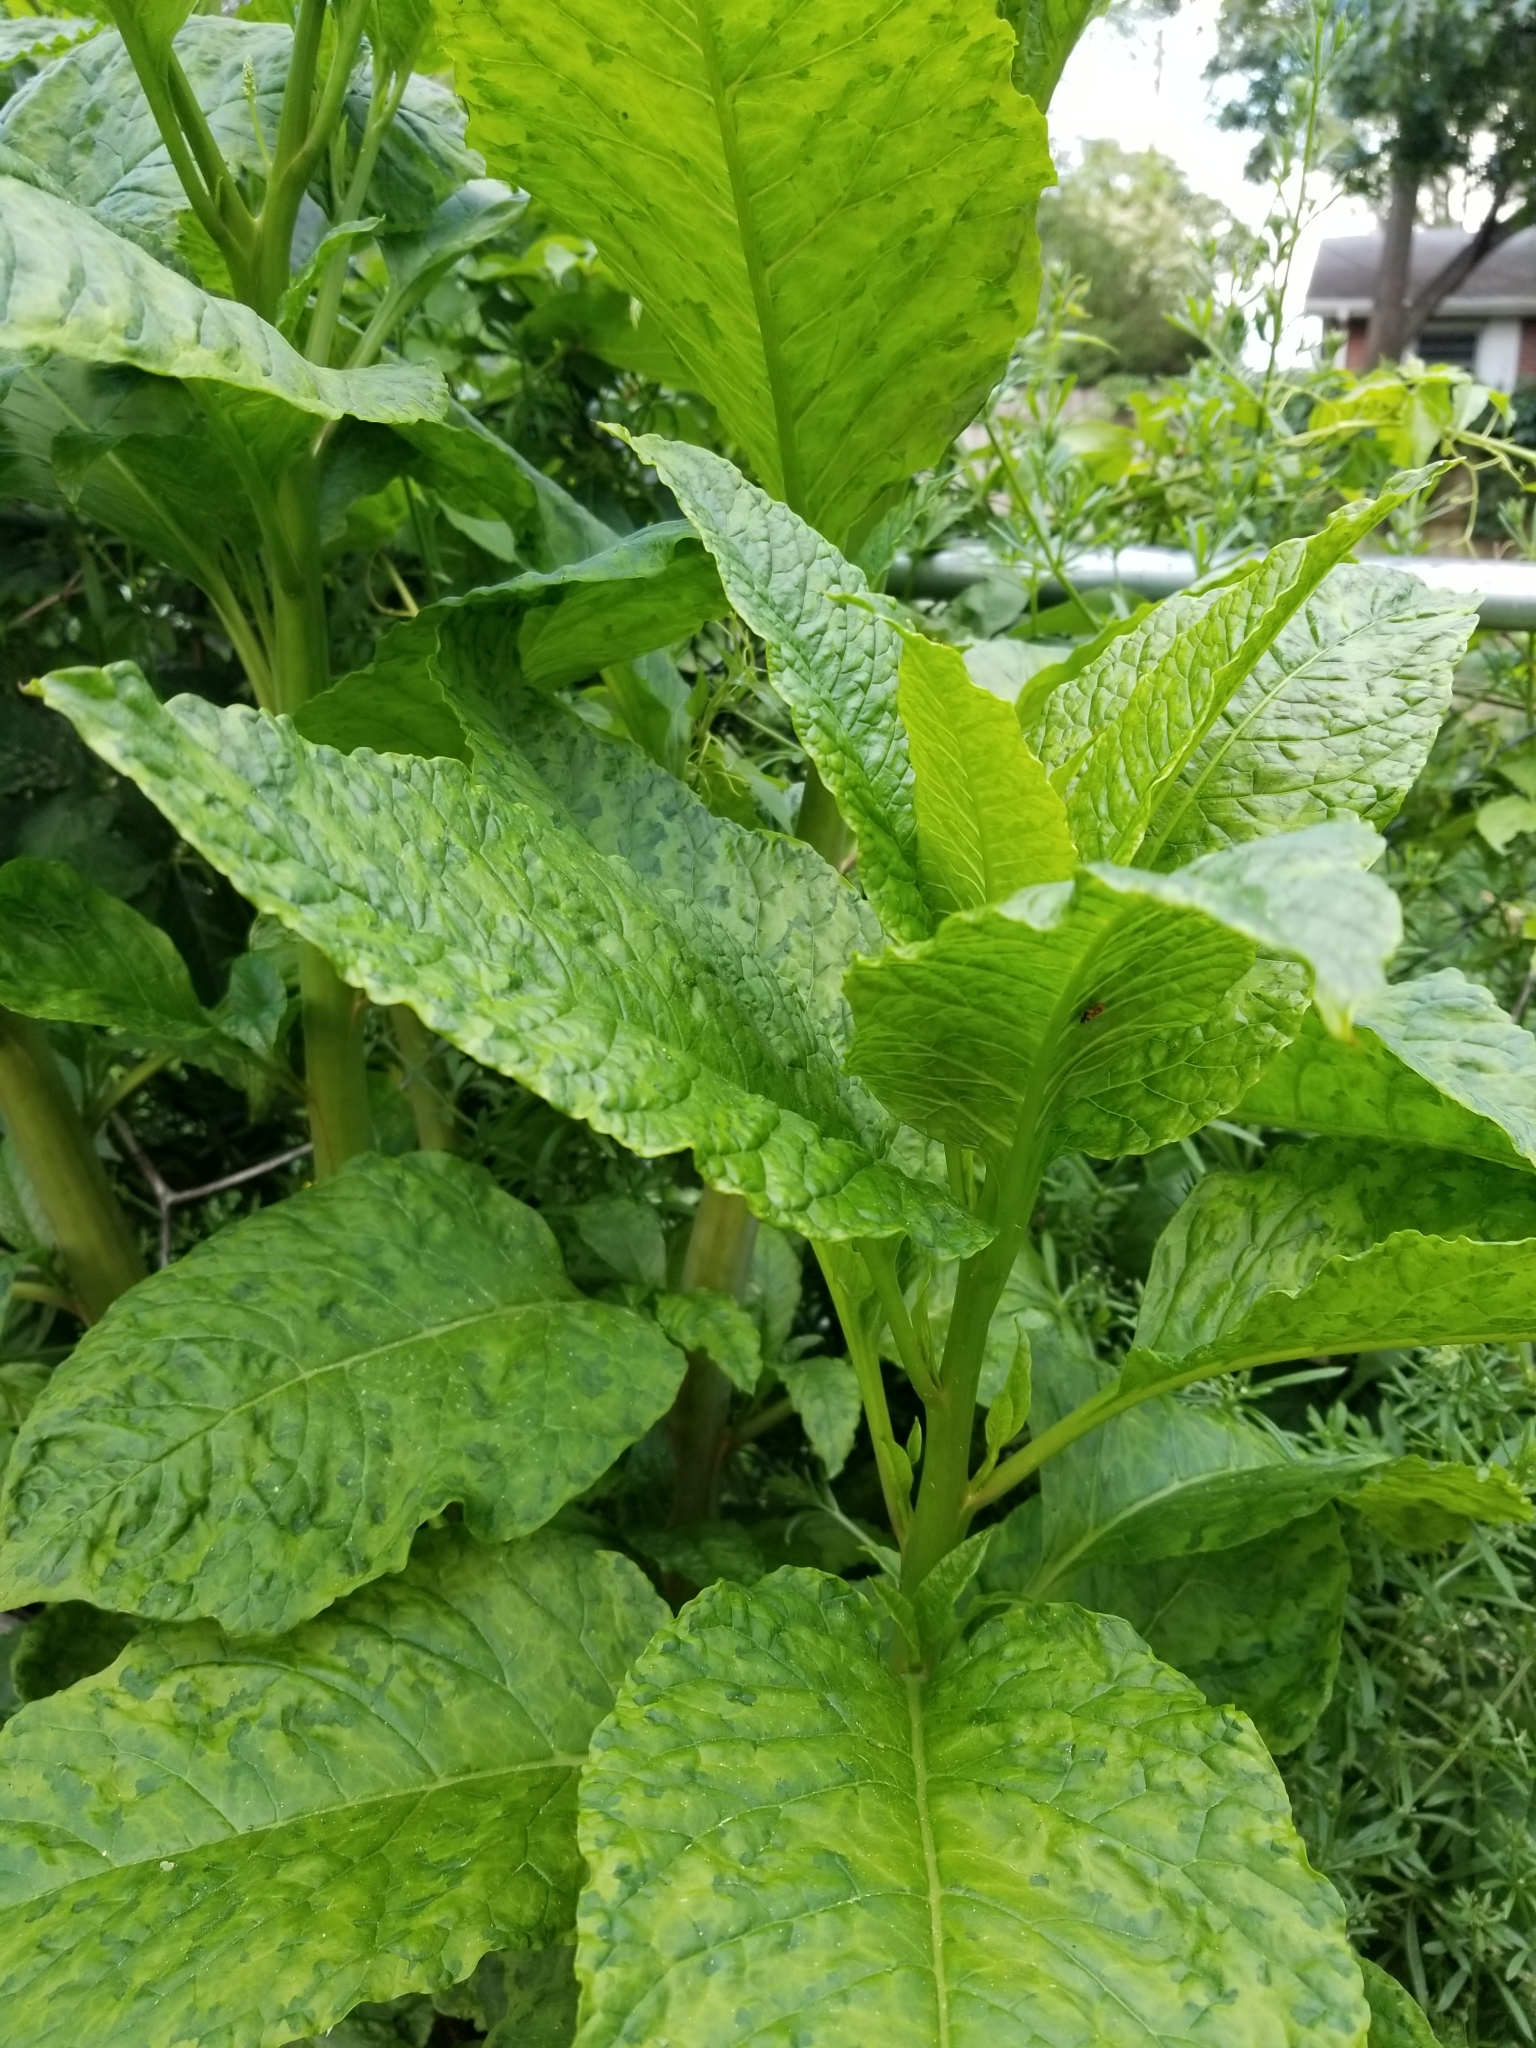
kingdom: Plantae
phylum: Tracheophyta
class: Magnoliopsida
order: Caryophyllales
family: Phytolaccaceae
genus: Phytolacca
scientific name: Phytolacca americana
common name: American pokeweed
